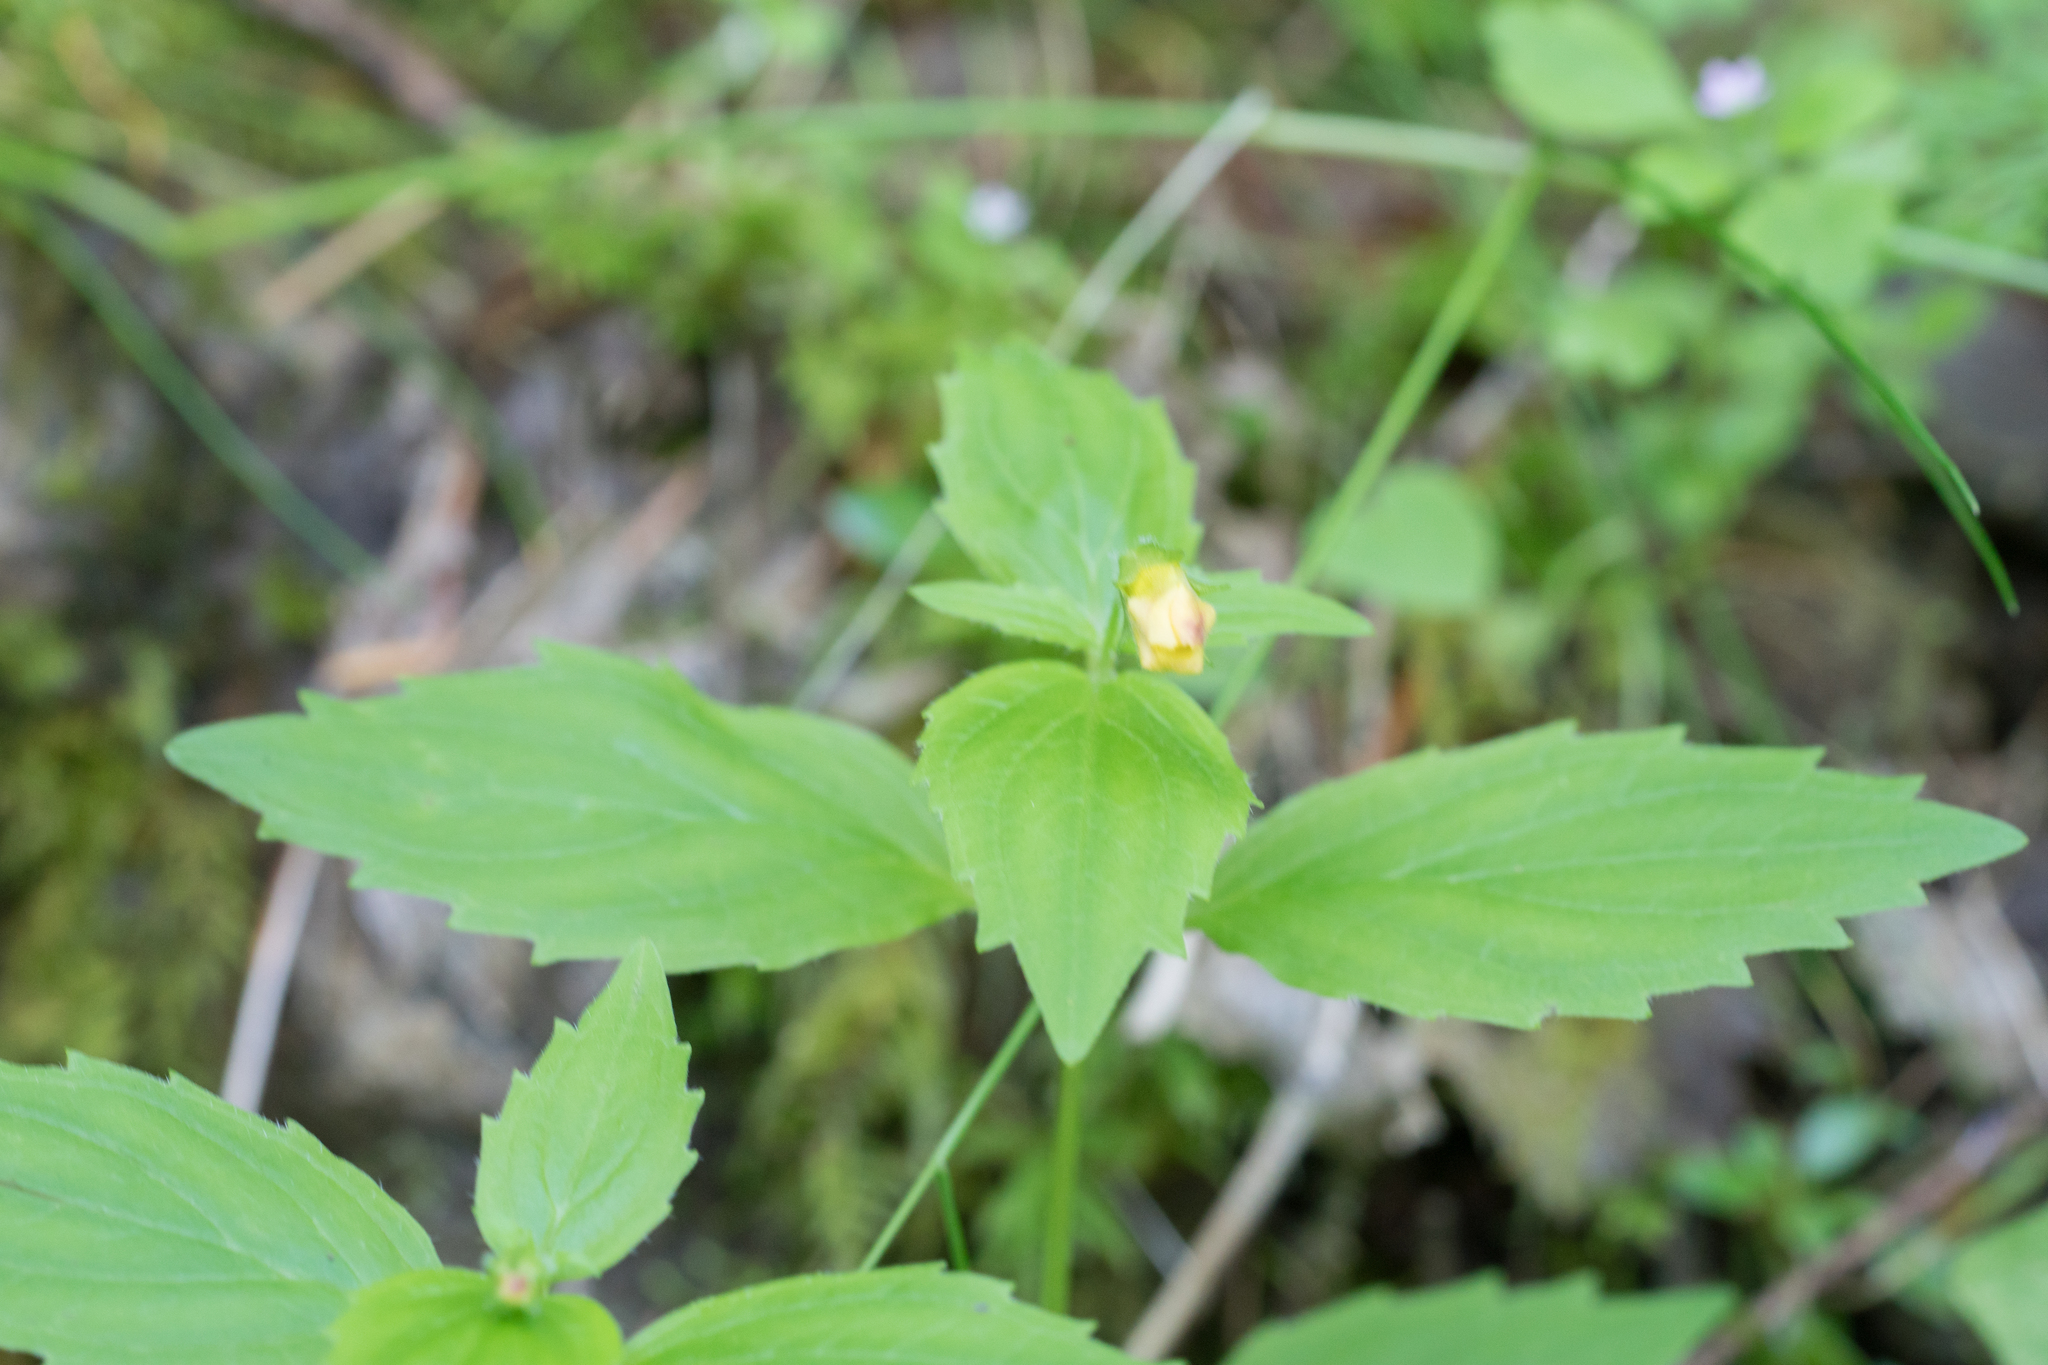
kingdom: Plantae
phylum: Tracheophyta
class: Magnoliopsida
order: Lamiales
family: Phrymaceae
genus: Erythranthe
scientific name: Erythranthe dentata
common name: Coastal monkeyflower
